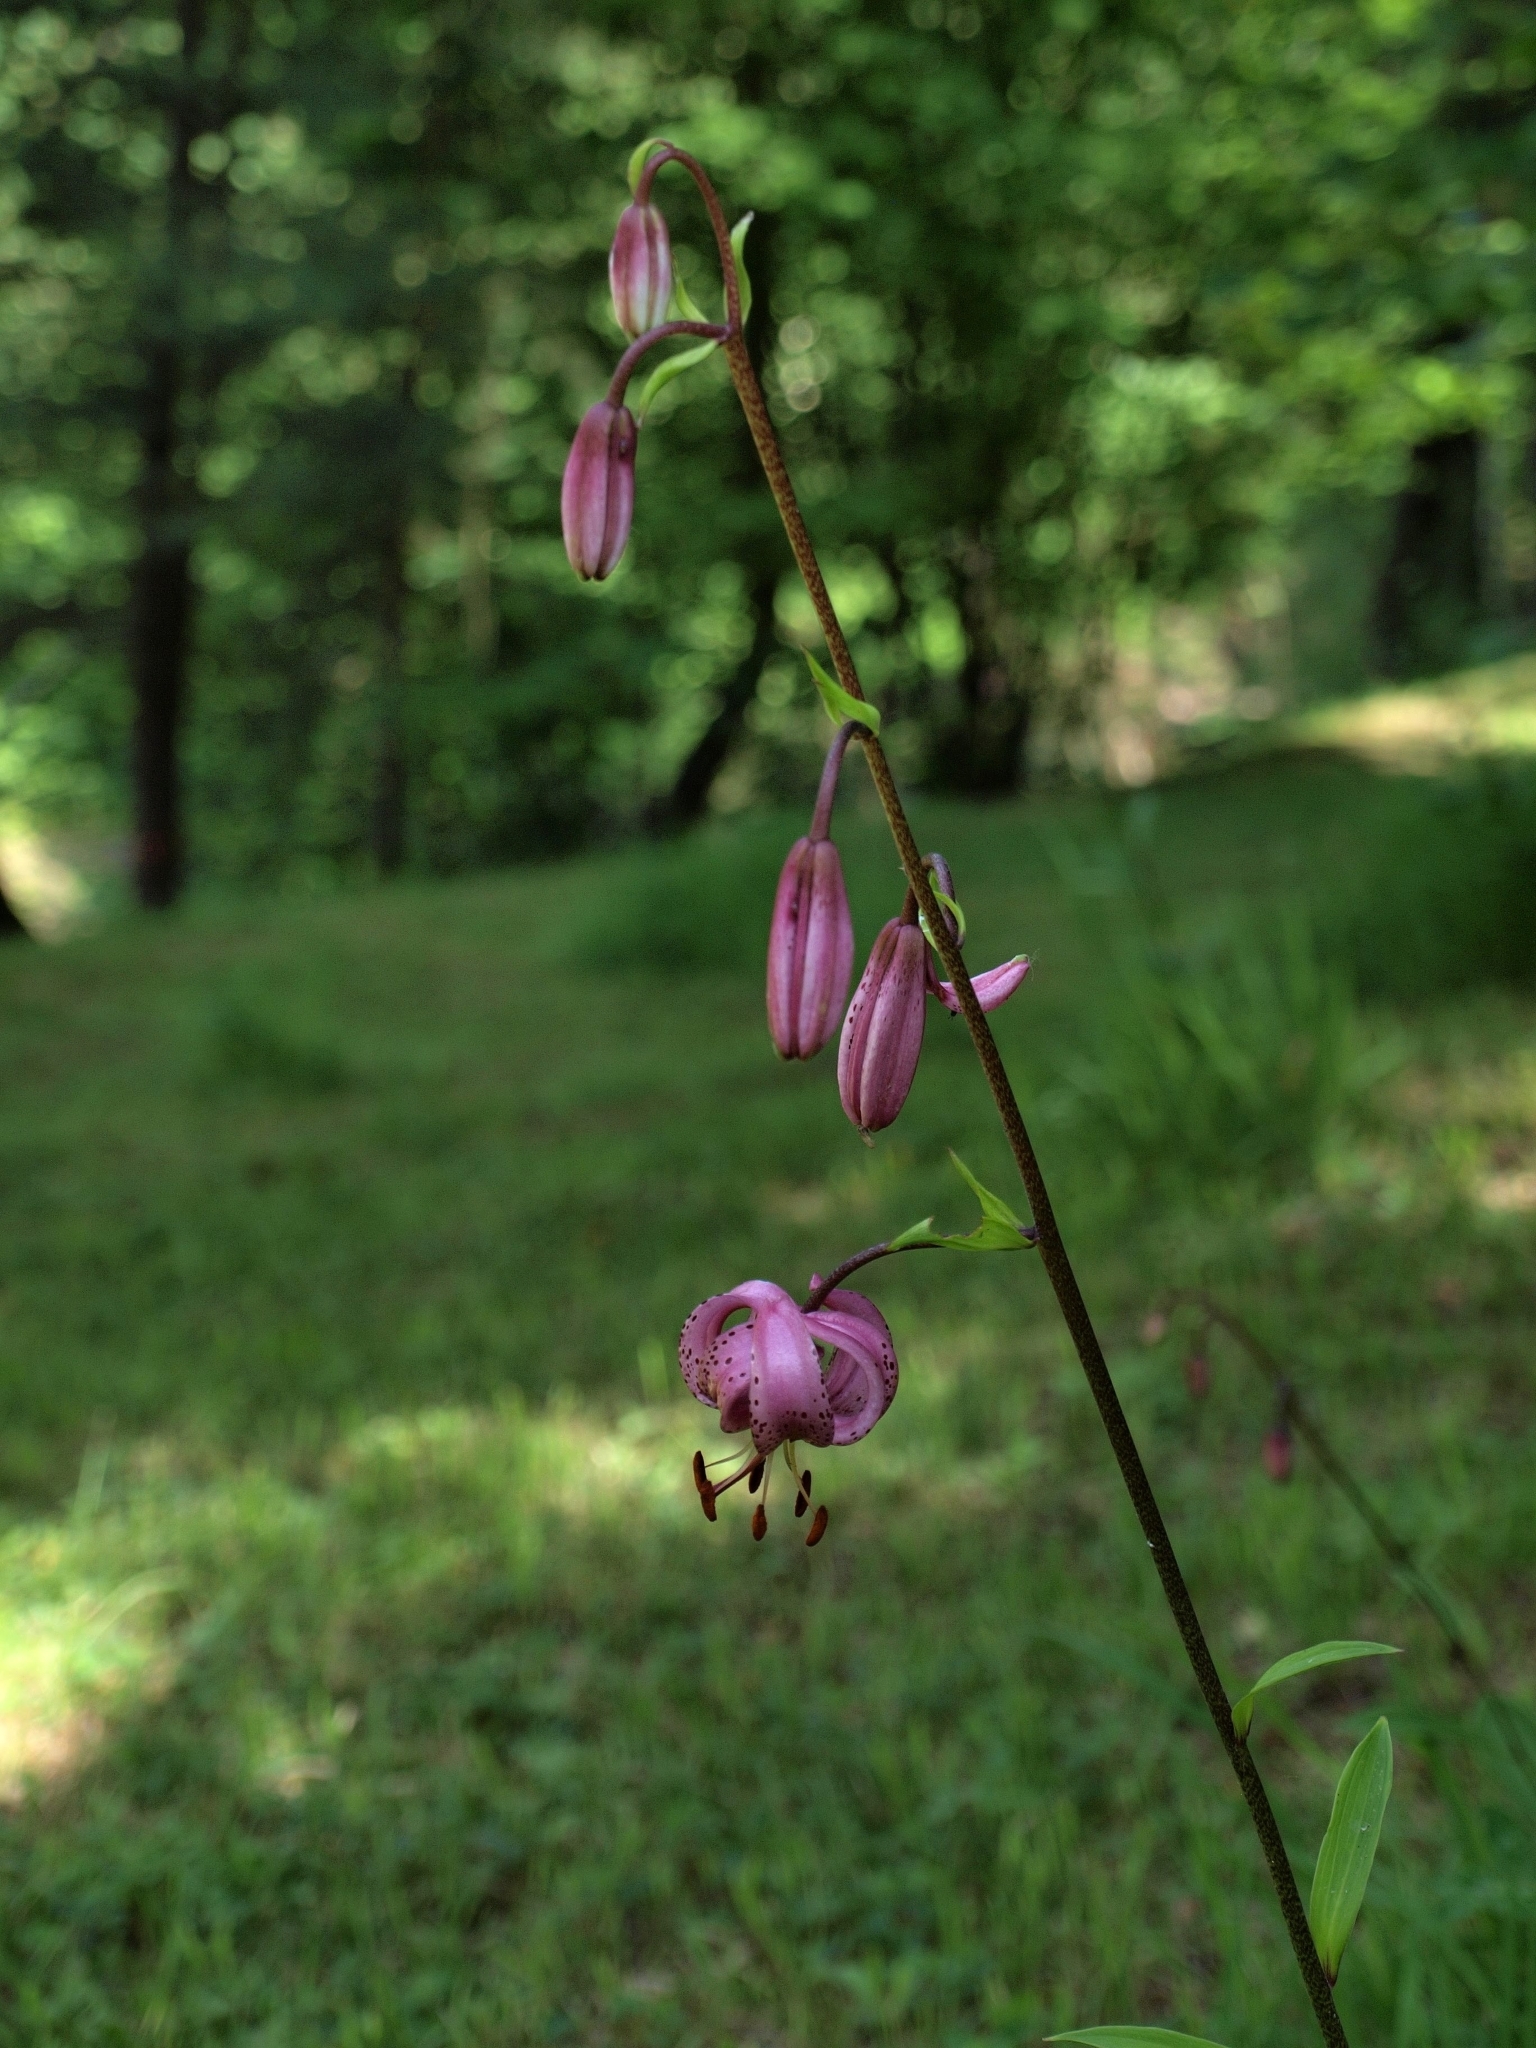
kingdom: Plantae
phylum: Tracheophyta
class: Liliopsida
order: Liliales
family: Liliaceae
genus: Lilium
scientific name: Lilium martagon
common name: Martagon lily
